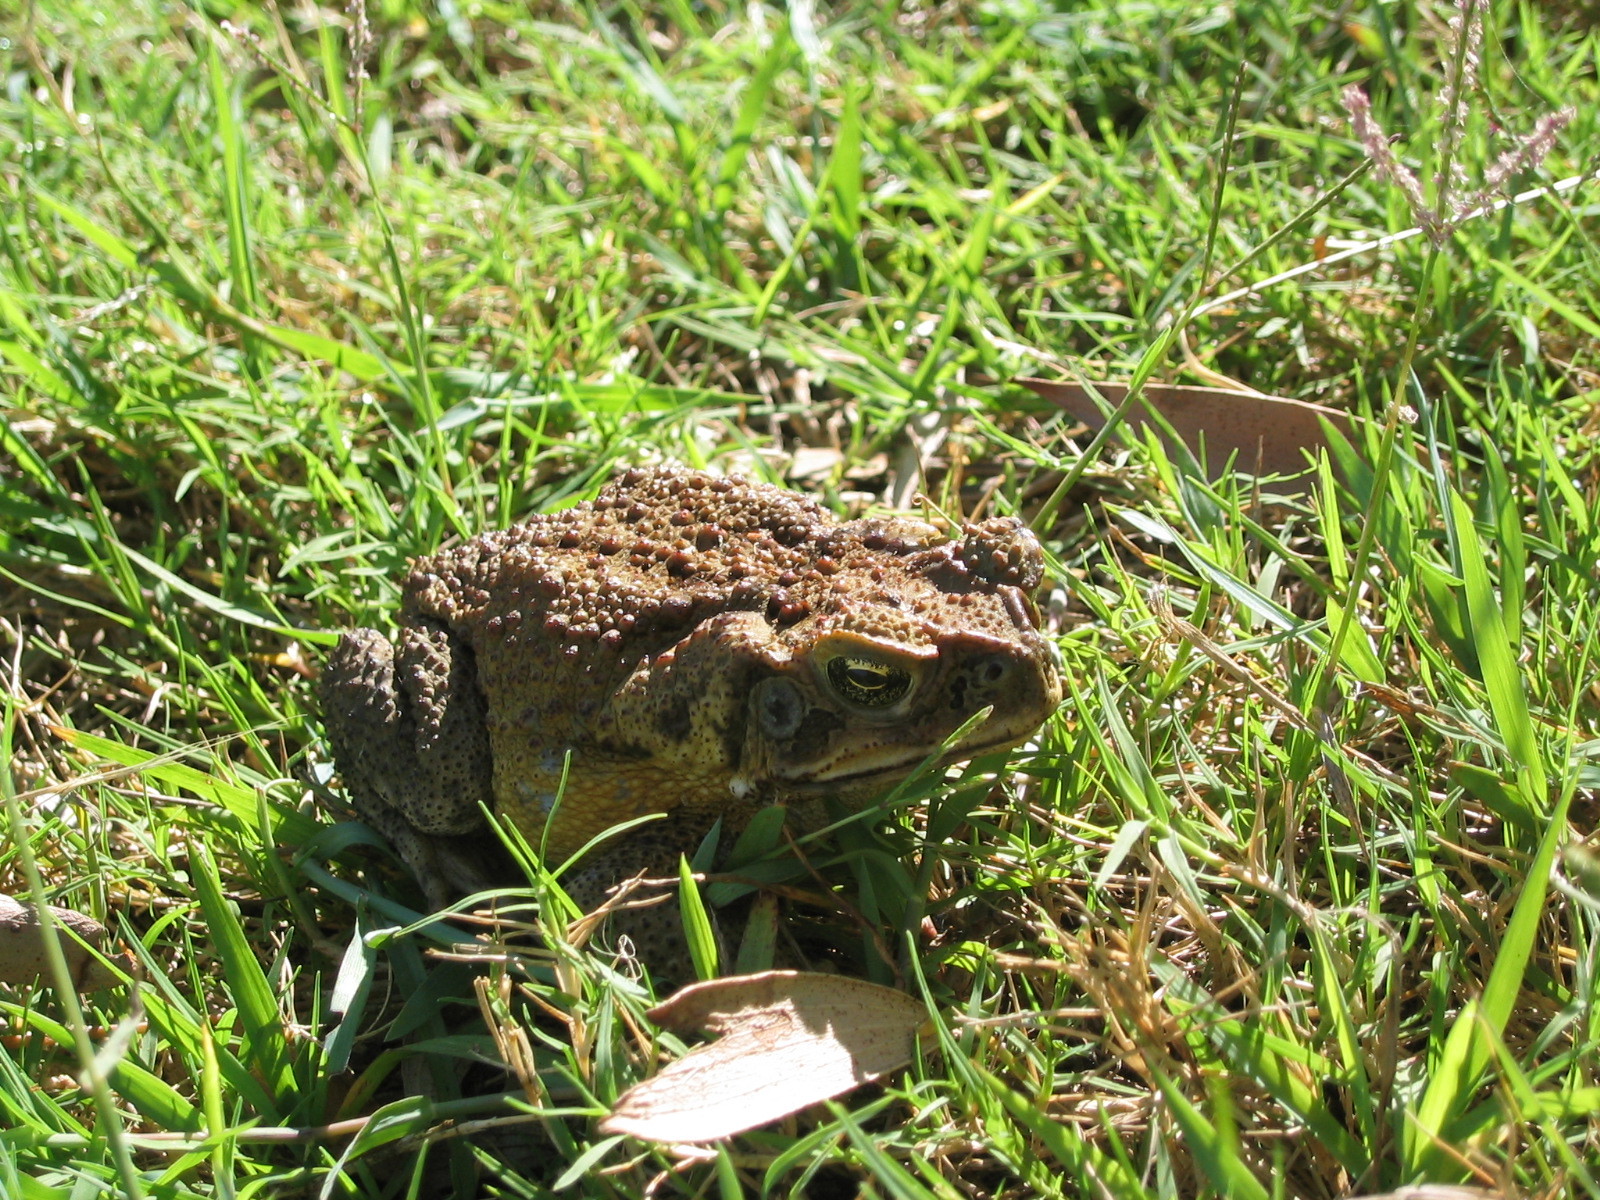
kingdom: Animalia
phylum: Chordata
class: Amphibia
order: Anura
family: Bufonidae
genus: Rhinella
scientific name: Rhinella marina
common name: Cane toad
